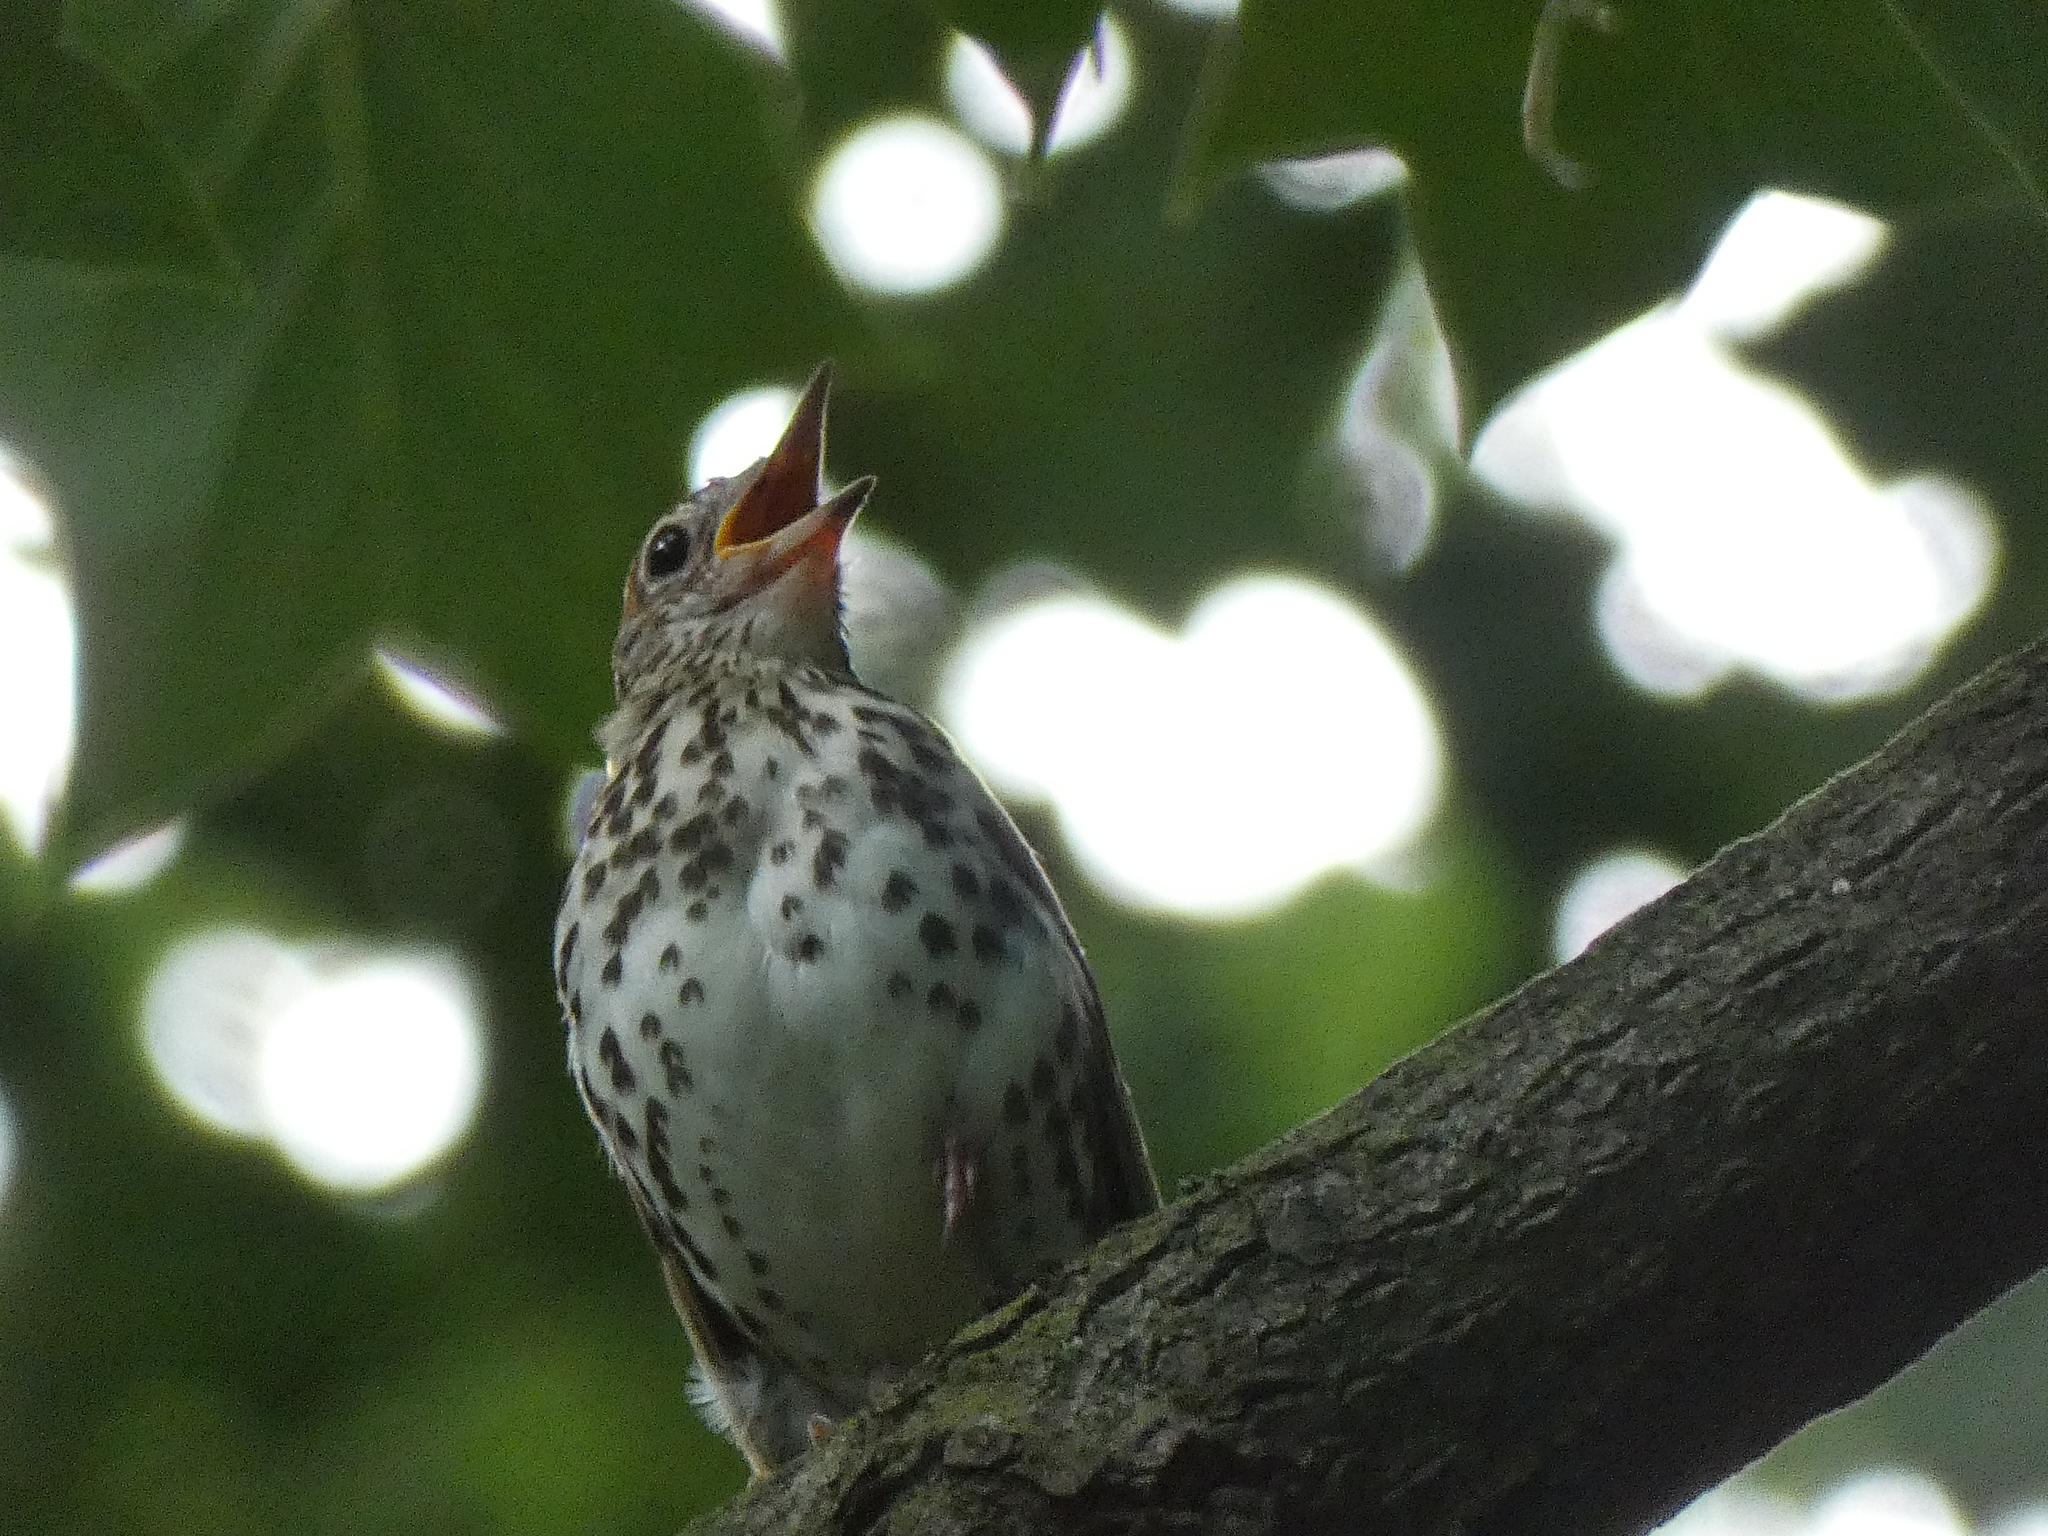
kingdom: Animalia
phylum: Chordata
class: Aves
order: Passeriformes
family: Turdidae
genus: Hylocichla
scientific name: Hylocichla mustelina
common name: Wood thrush
